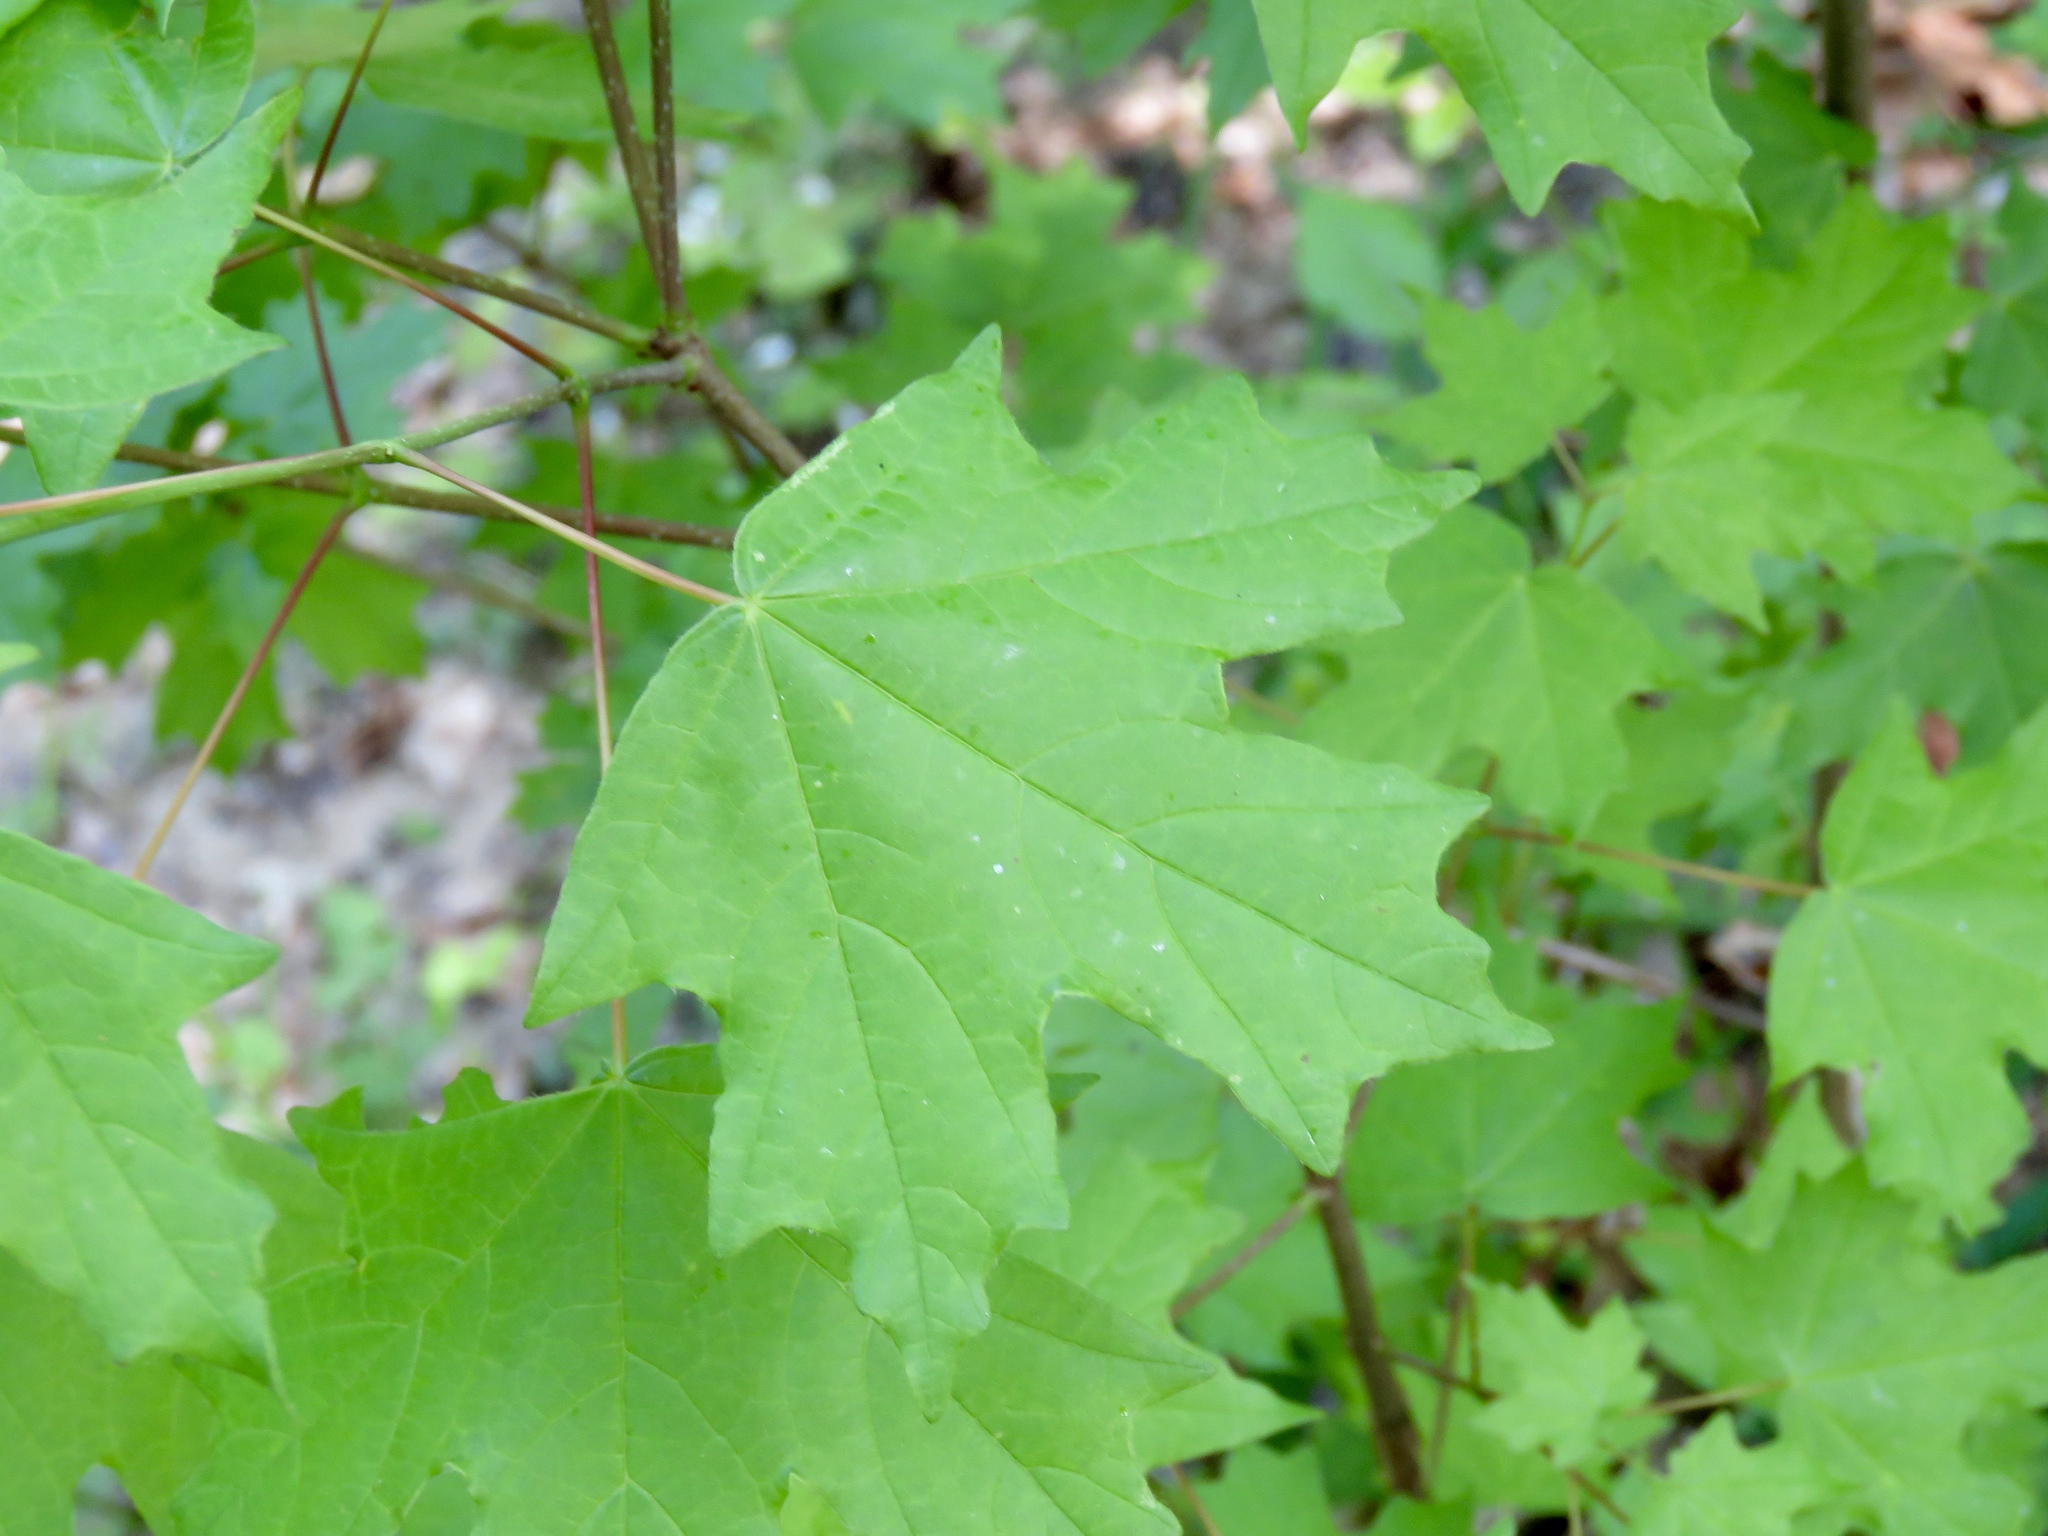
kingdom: Plantae
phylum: Tracheophyta
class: Magnoliopsida
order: Sapindales
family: Sapindaceae
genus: Acer
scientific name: Acer floridanum
